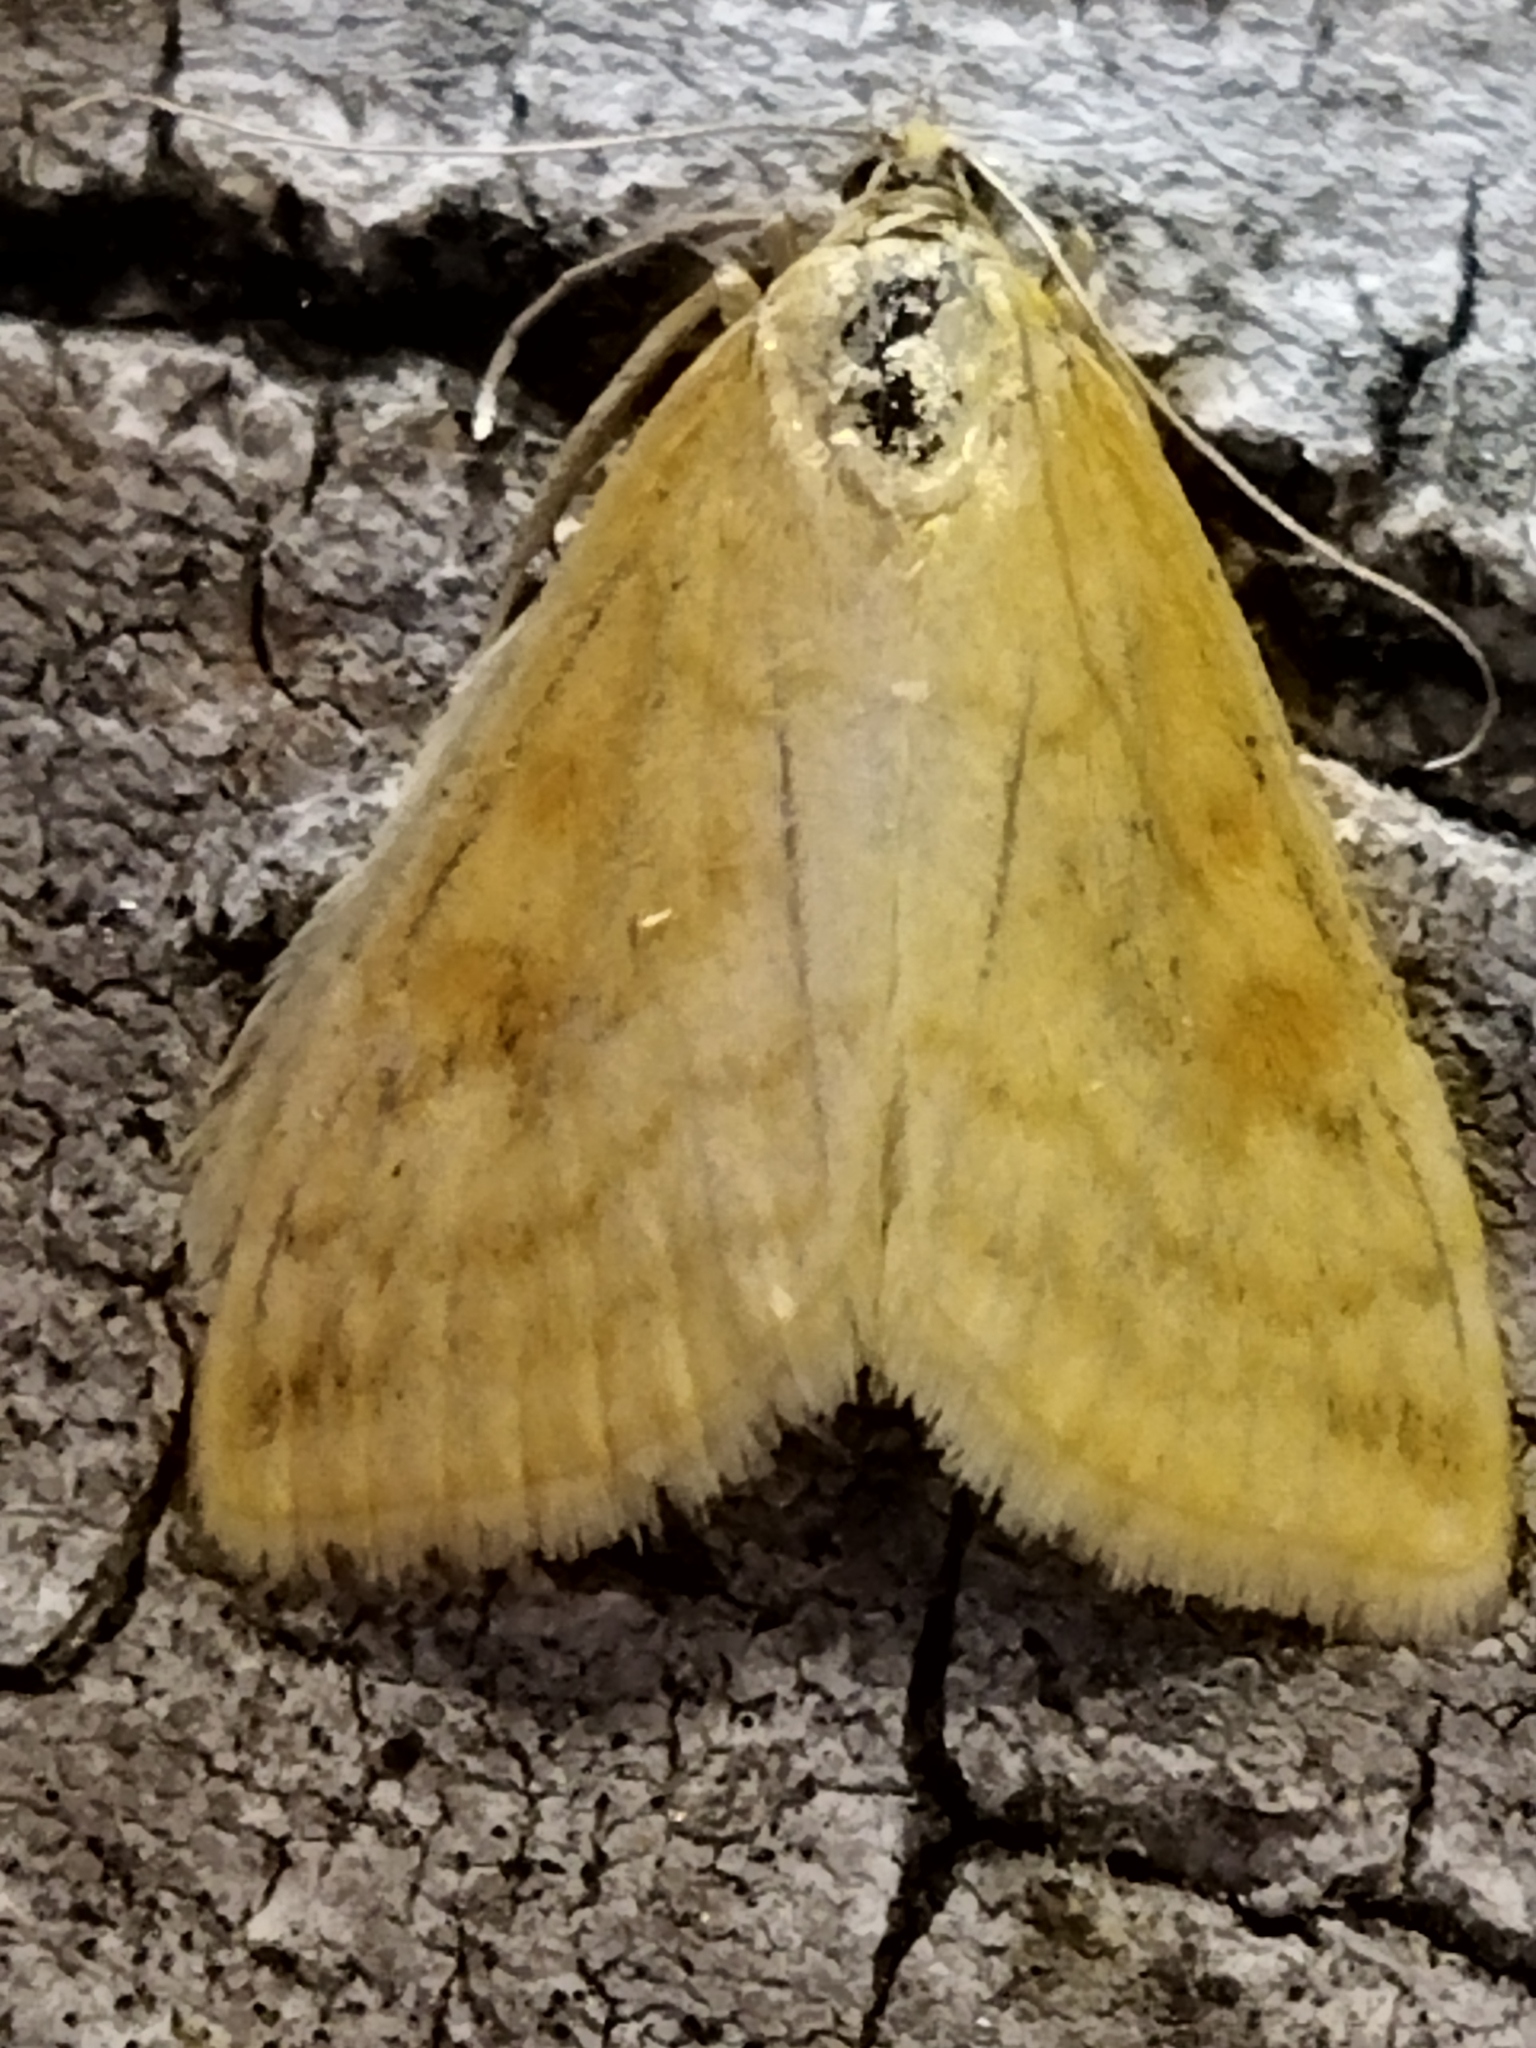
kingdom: Animalia
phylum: Arthropoda
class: Insecta
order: Lepidoptera
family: Crambidae
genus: Sitochroa
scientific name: Sitochroa verticalis
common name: Lesser pearl
